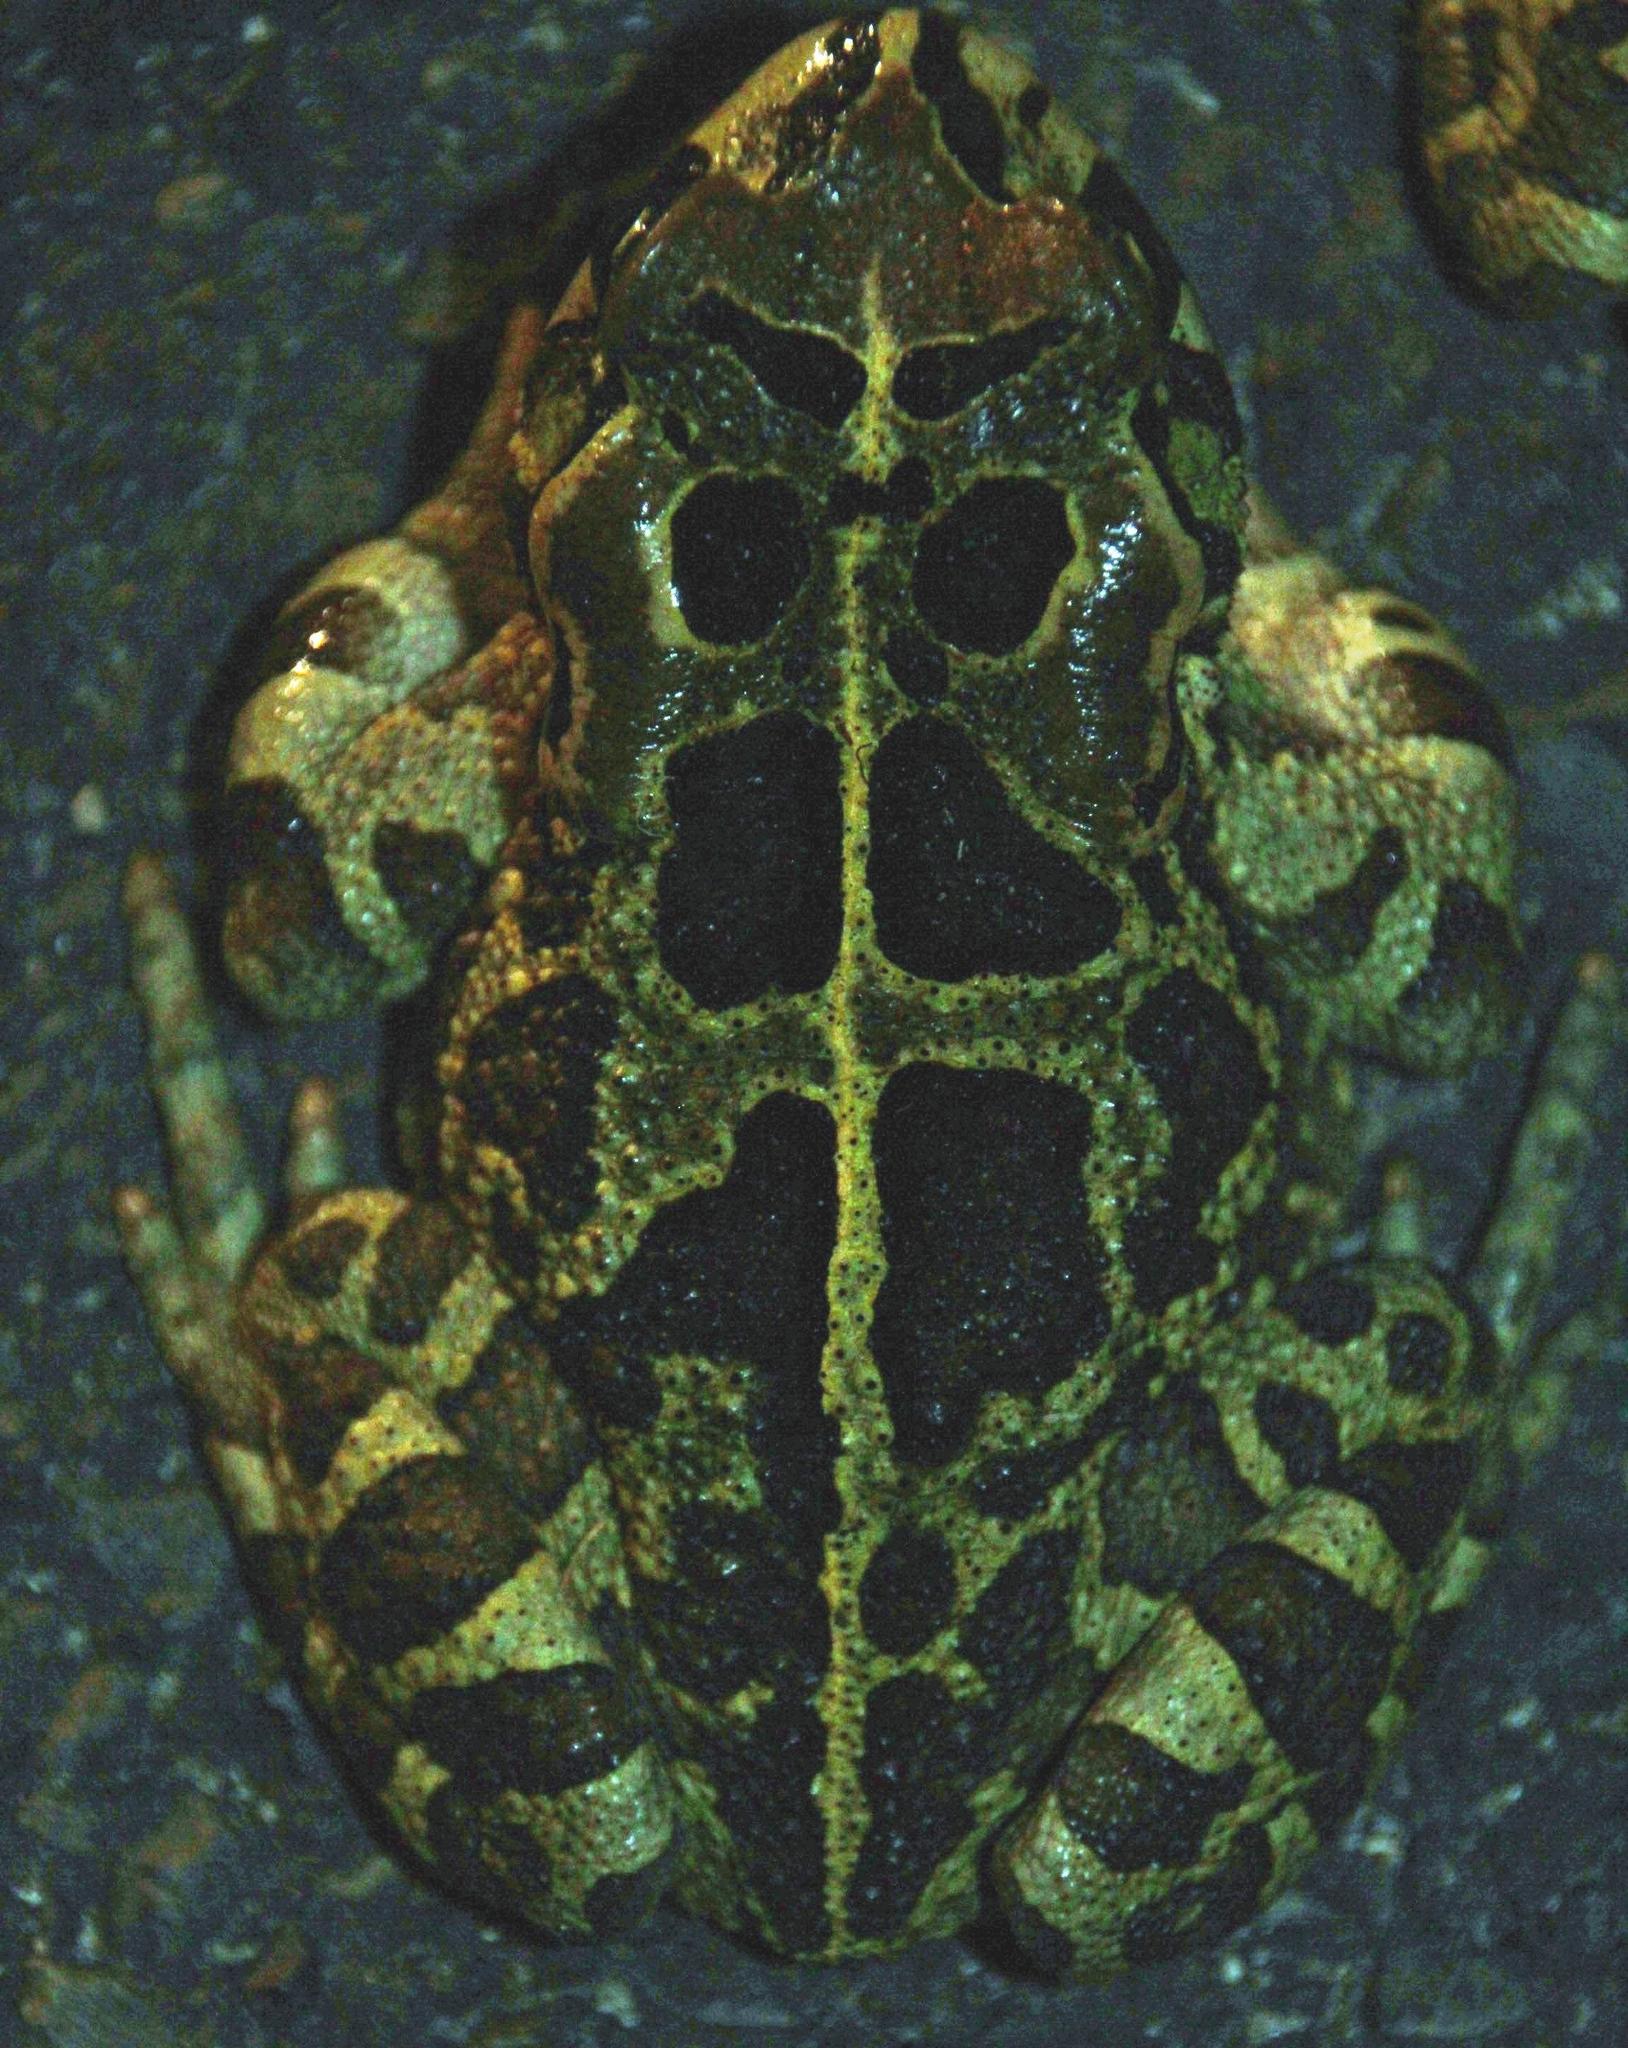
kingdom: Animalia
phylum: Chordata
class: Amphibia
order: Anura
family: Bufonidae
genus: Sclerophrys
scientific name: Sclerophrys pantherina
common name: Panther toad
